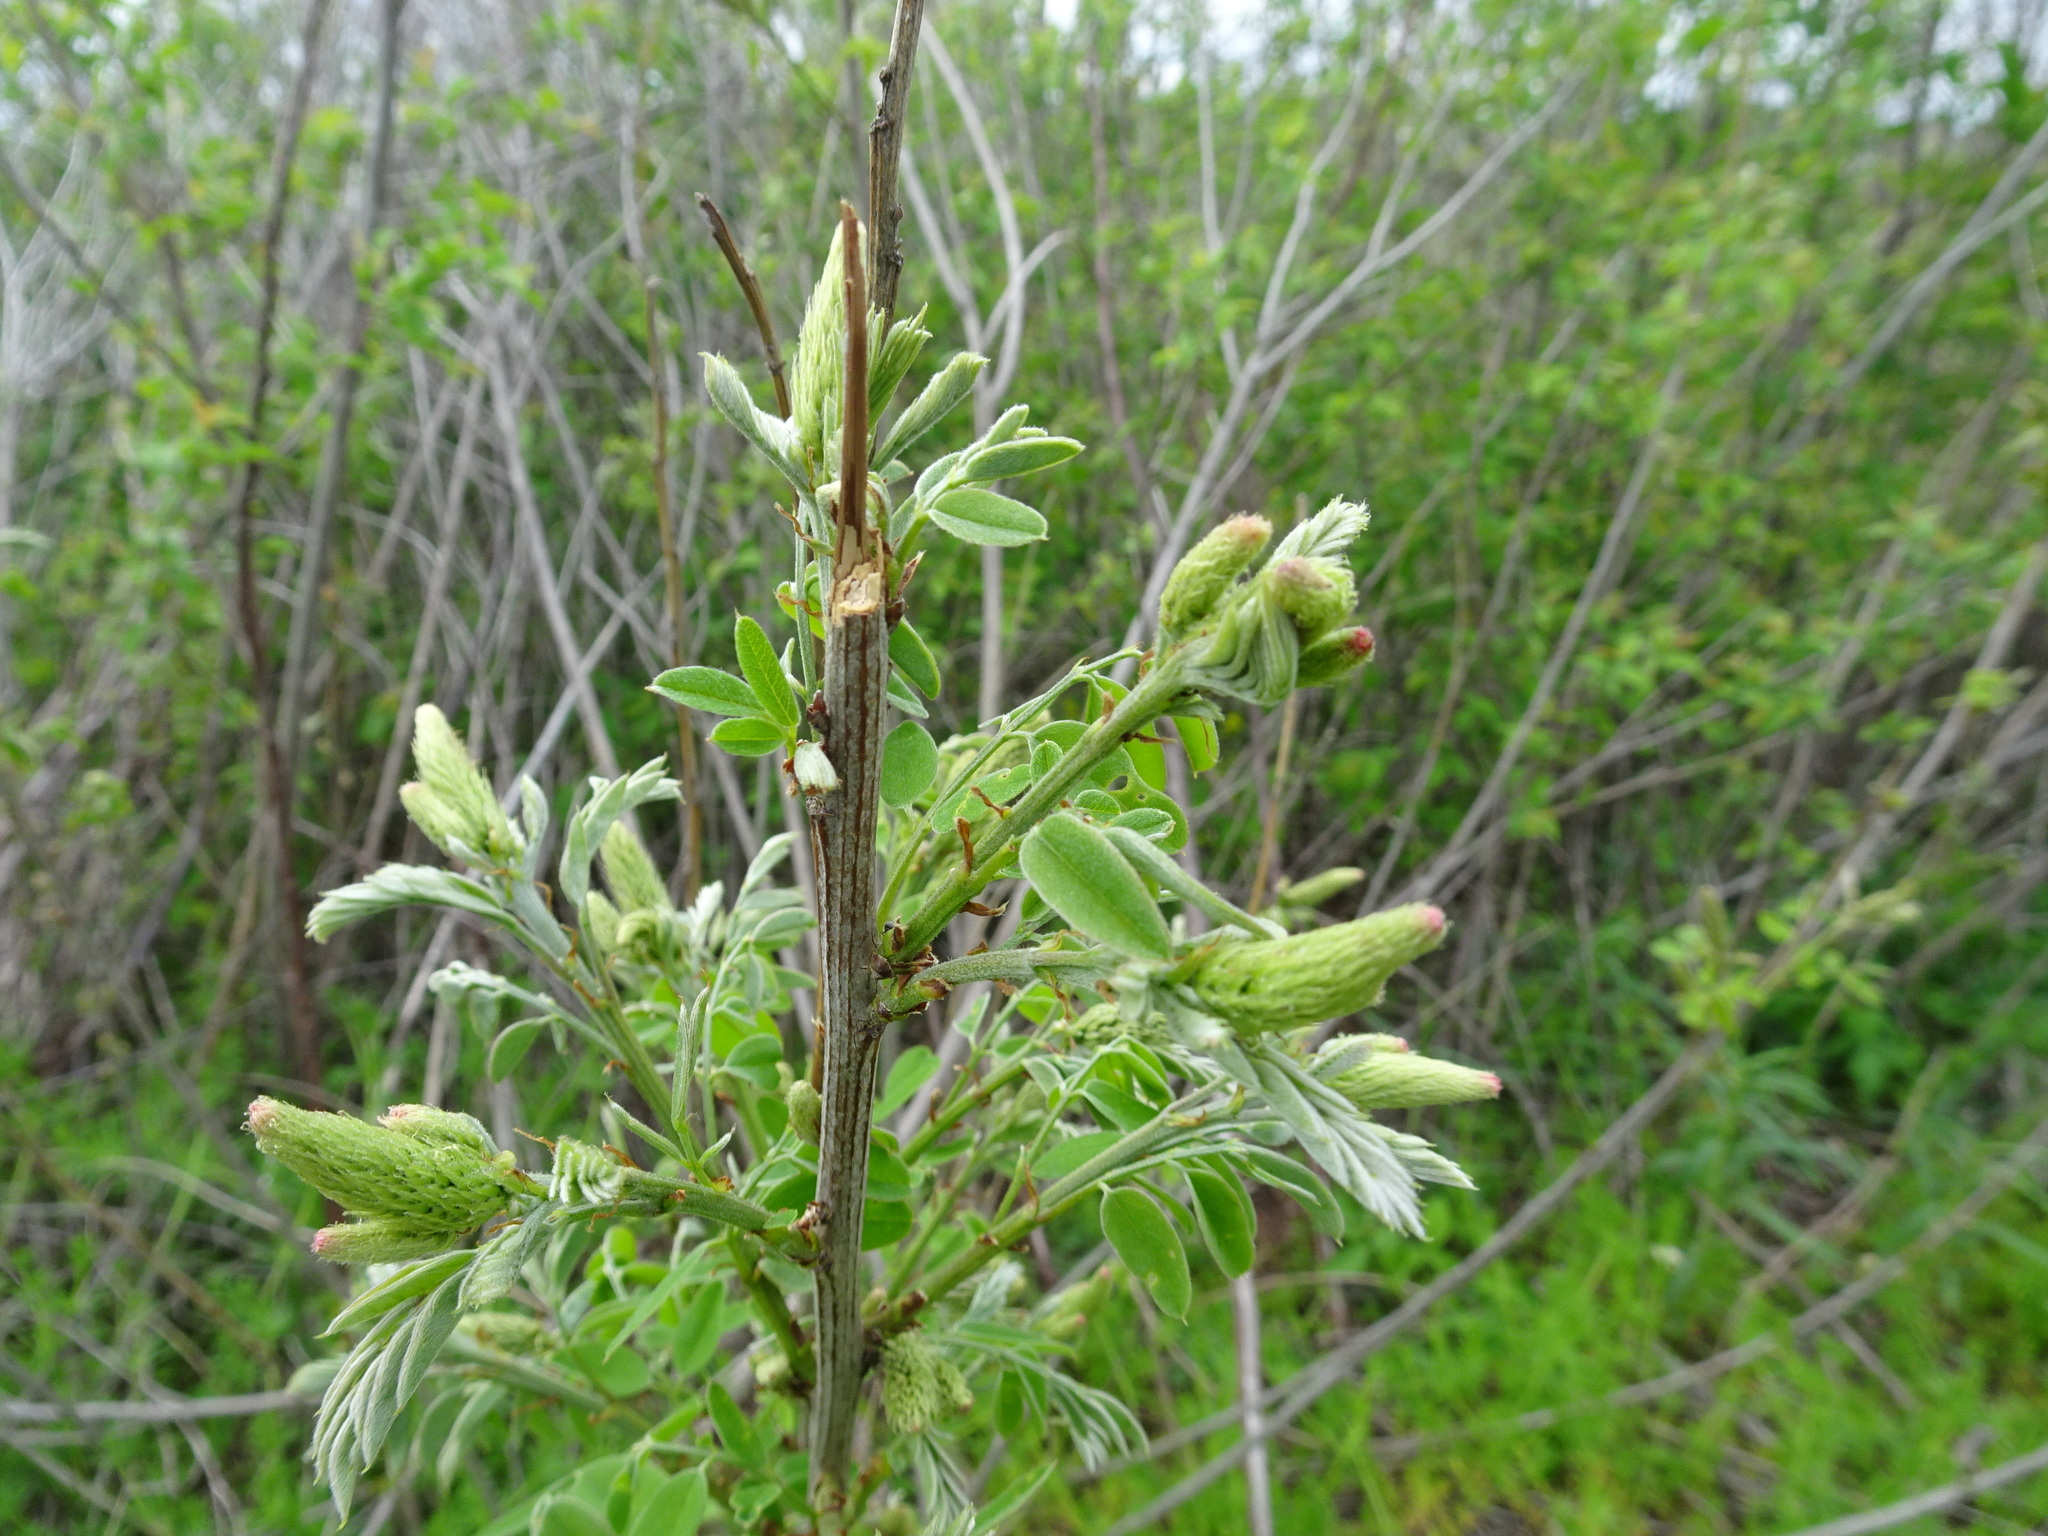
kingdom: Plantae
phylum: Tracheophyta
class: Magnoliopsida
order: Fabales
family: Fabaceae
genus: Amorpha
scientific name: Amorpha fruticosa
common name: False indigo
